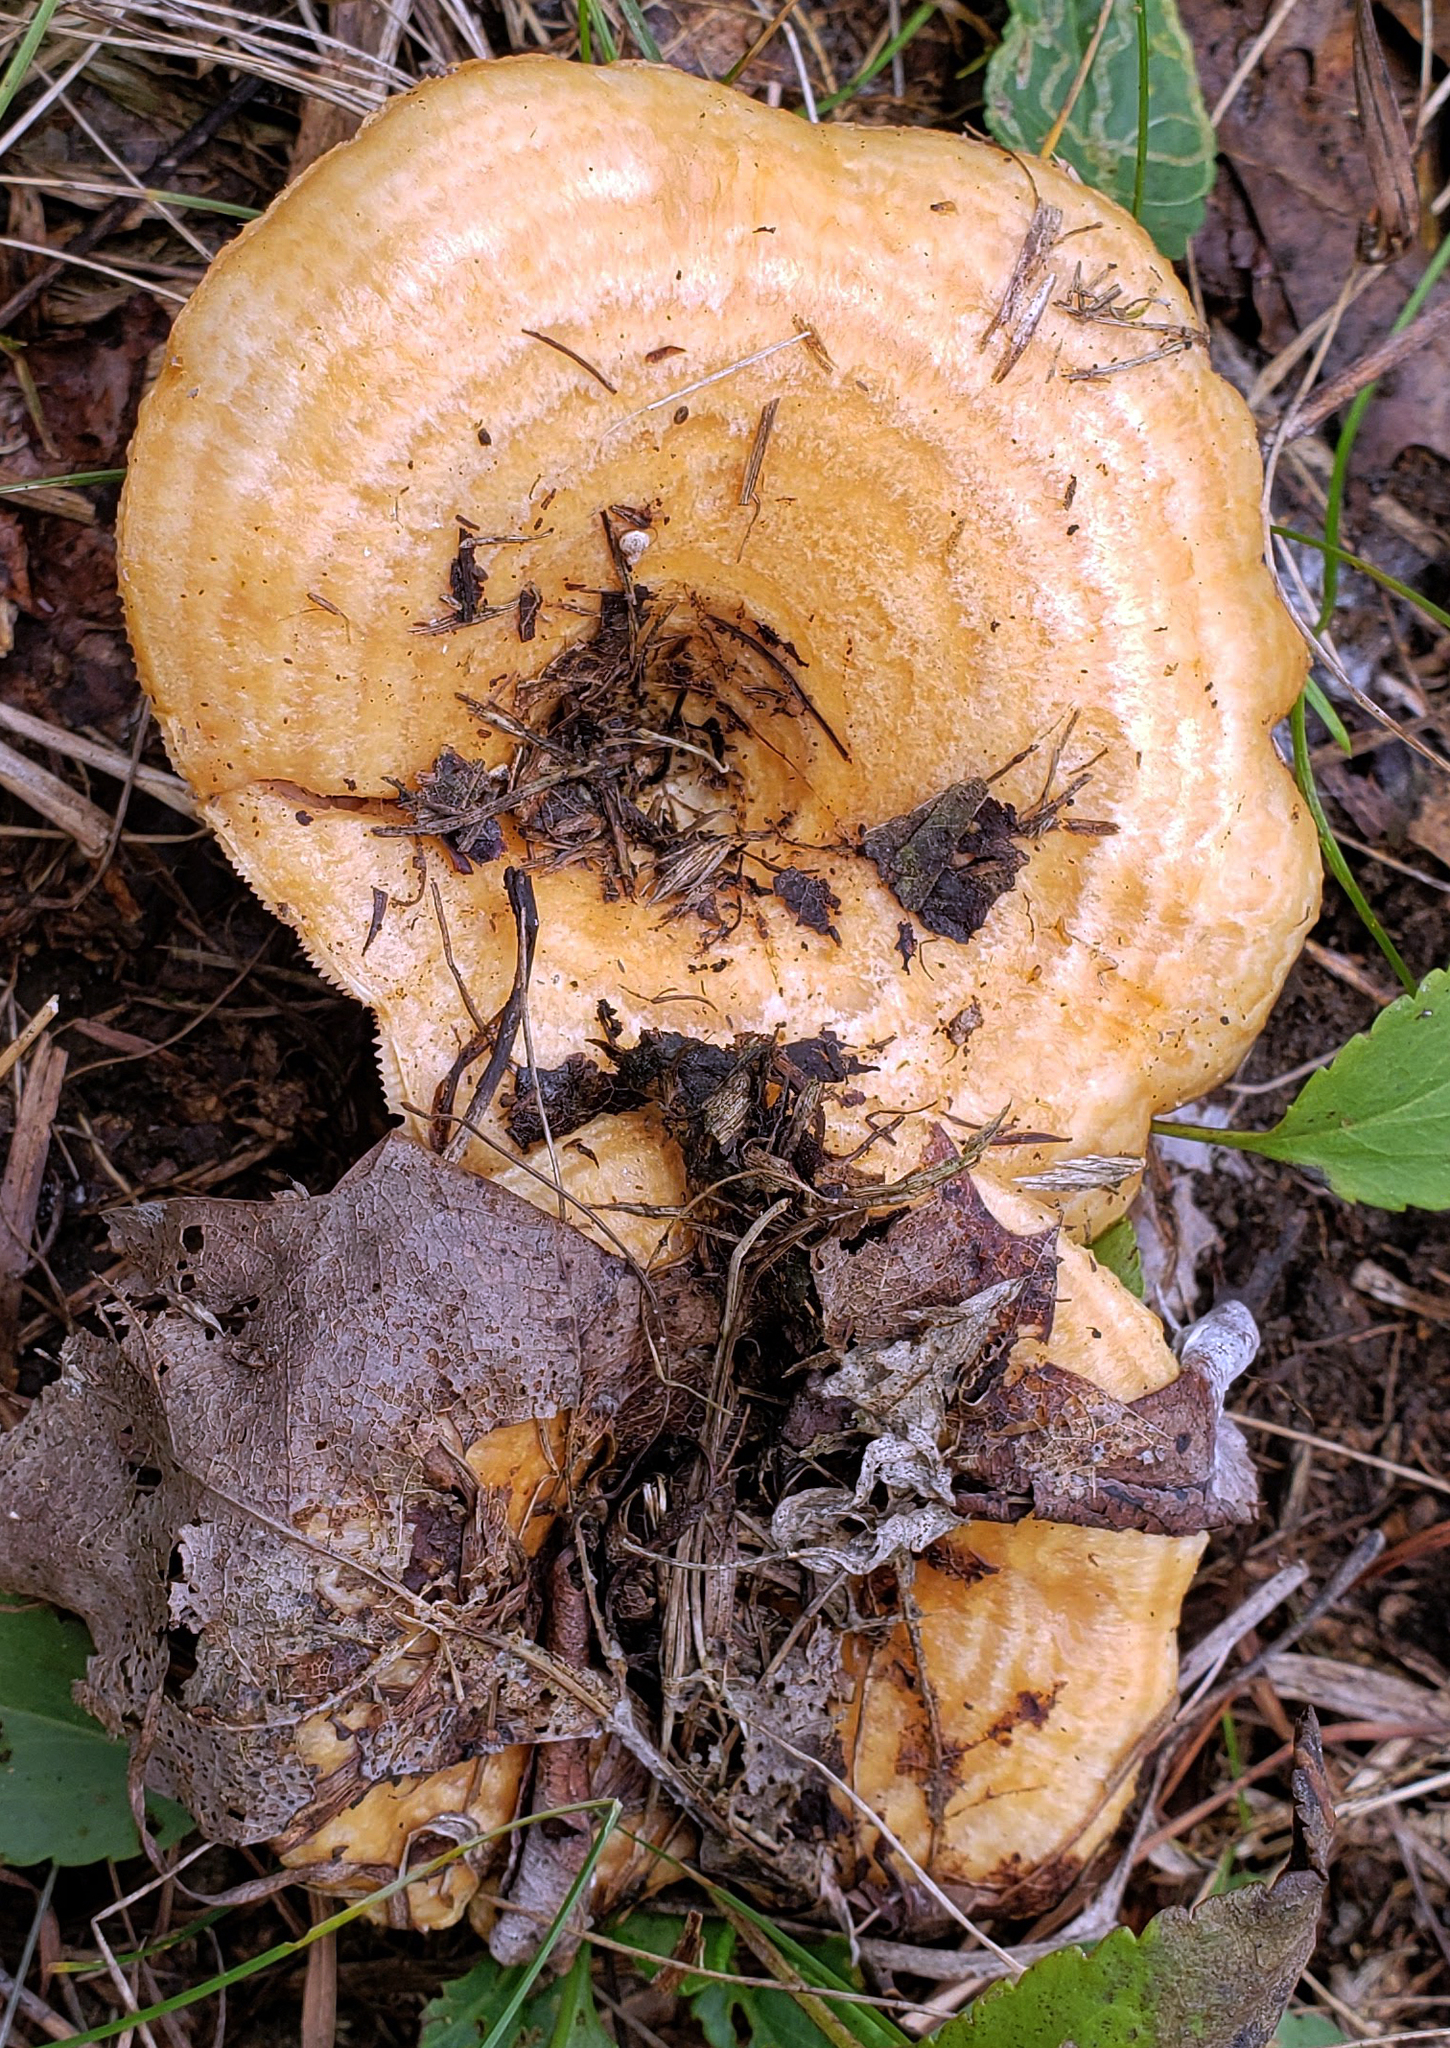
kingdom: Fungi
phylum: Basidiomycota
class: Agaricomycetes
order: Russulales
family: Russulaceae
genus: Lactarius
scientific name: Lactarius psammicola
